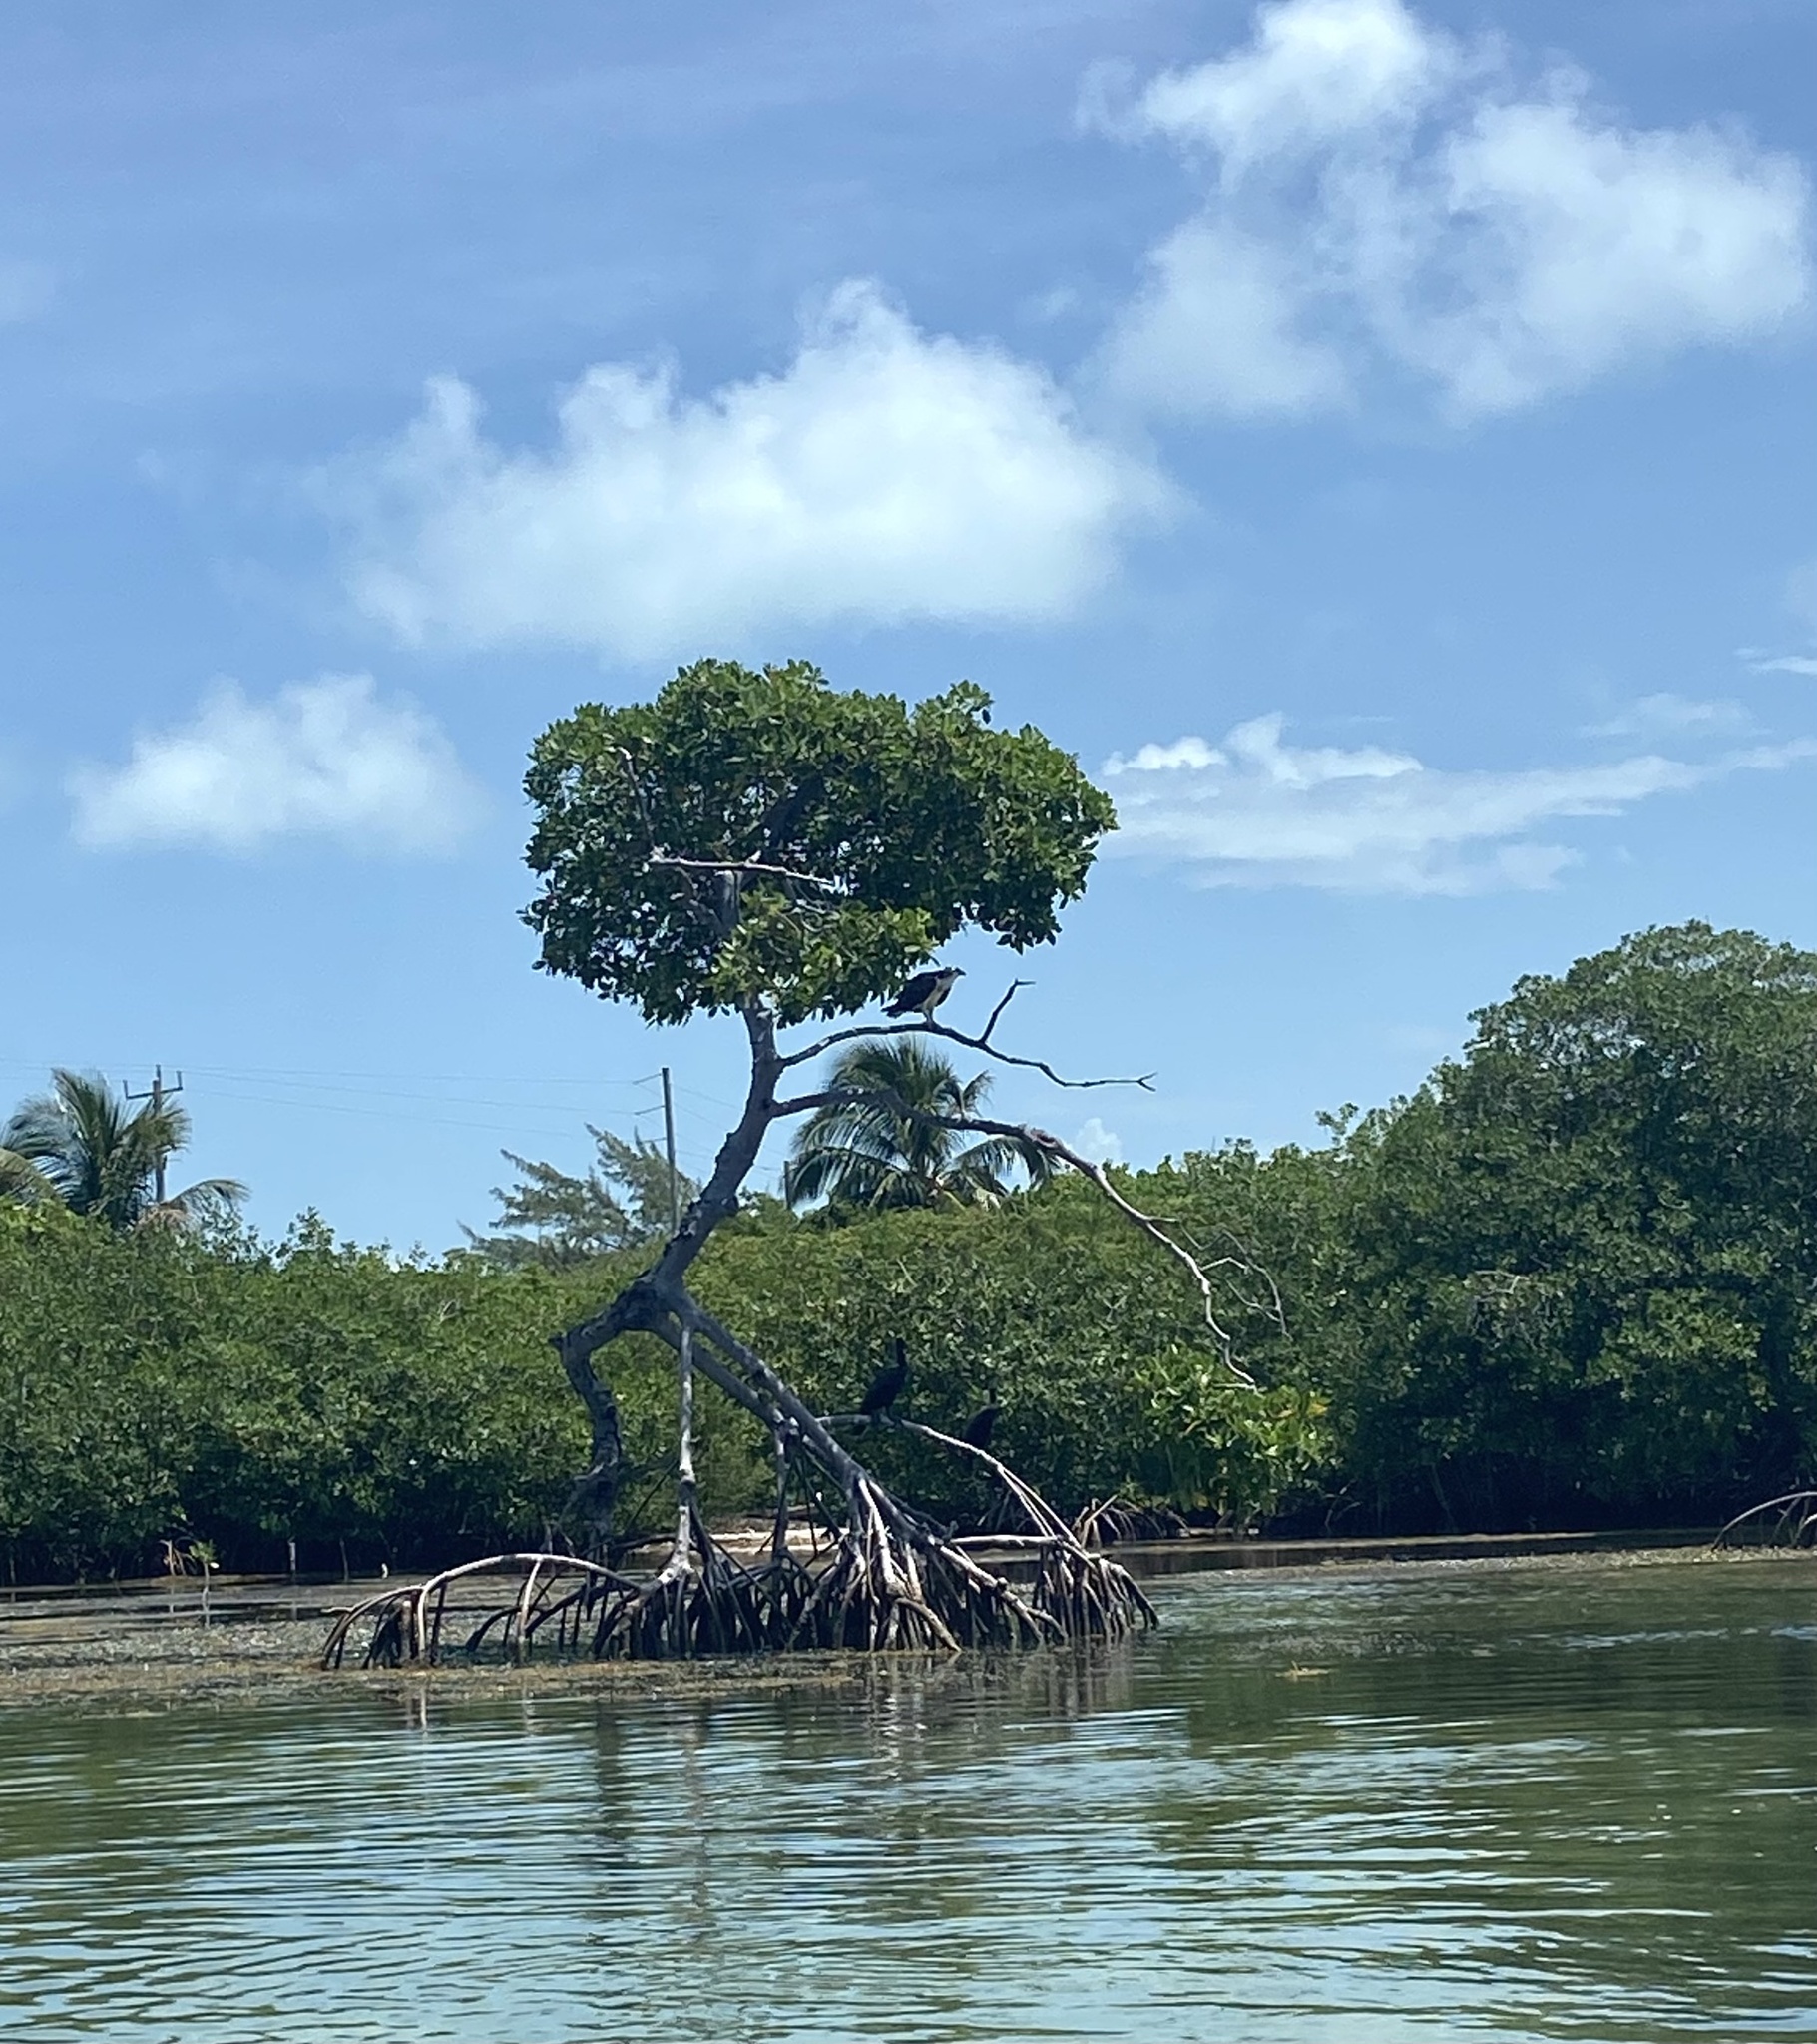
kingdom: Animalia
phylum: Chordata
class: Aves
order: Accipitriformes
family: Pandionidae
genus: Pandion
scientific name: Pandion haliaetus
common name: Osprey
